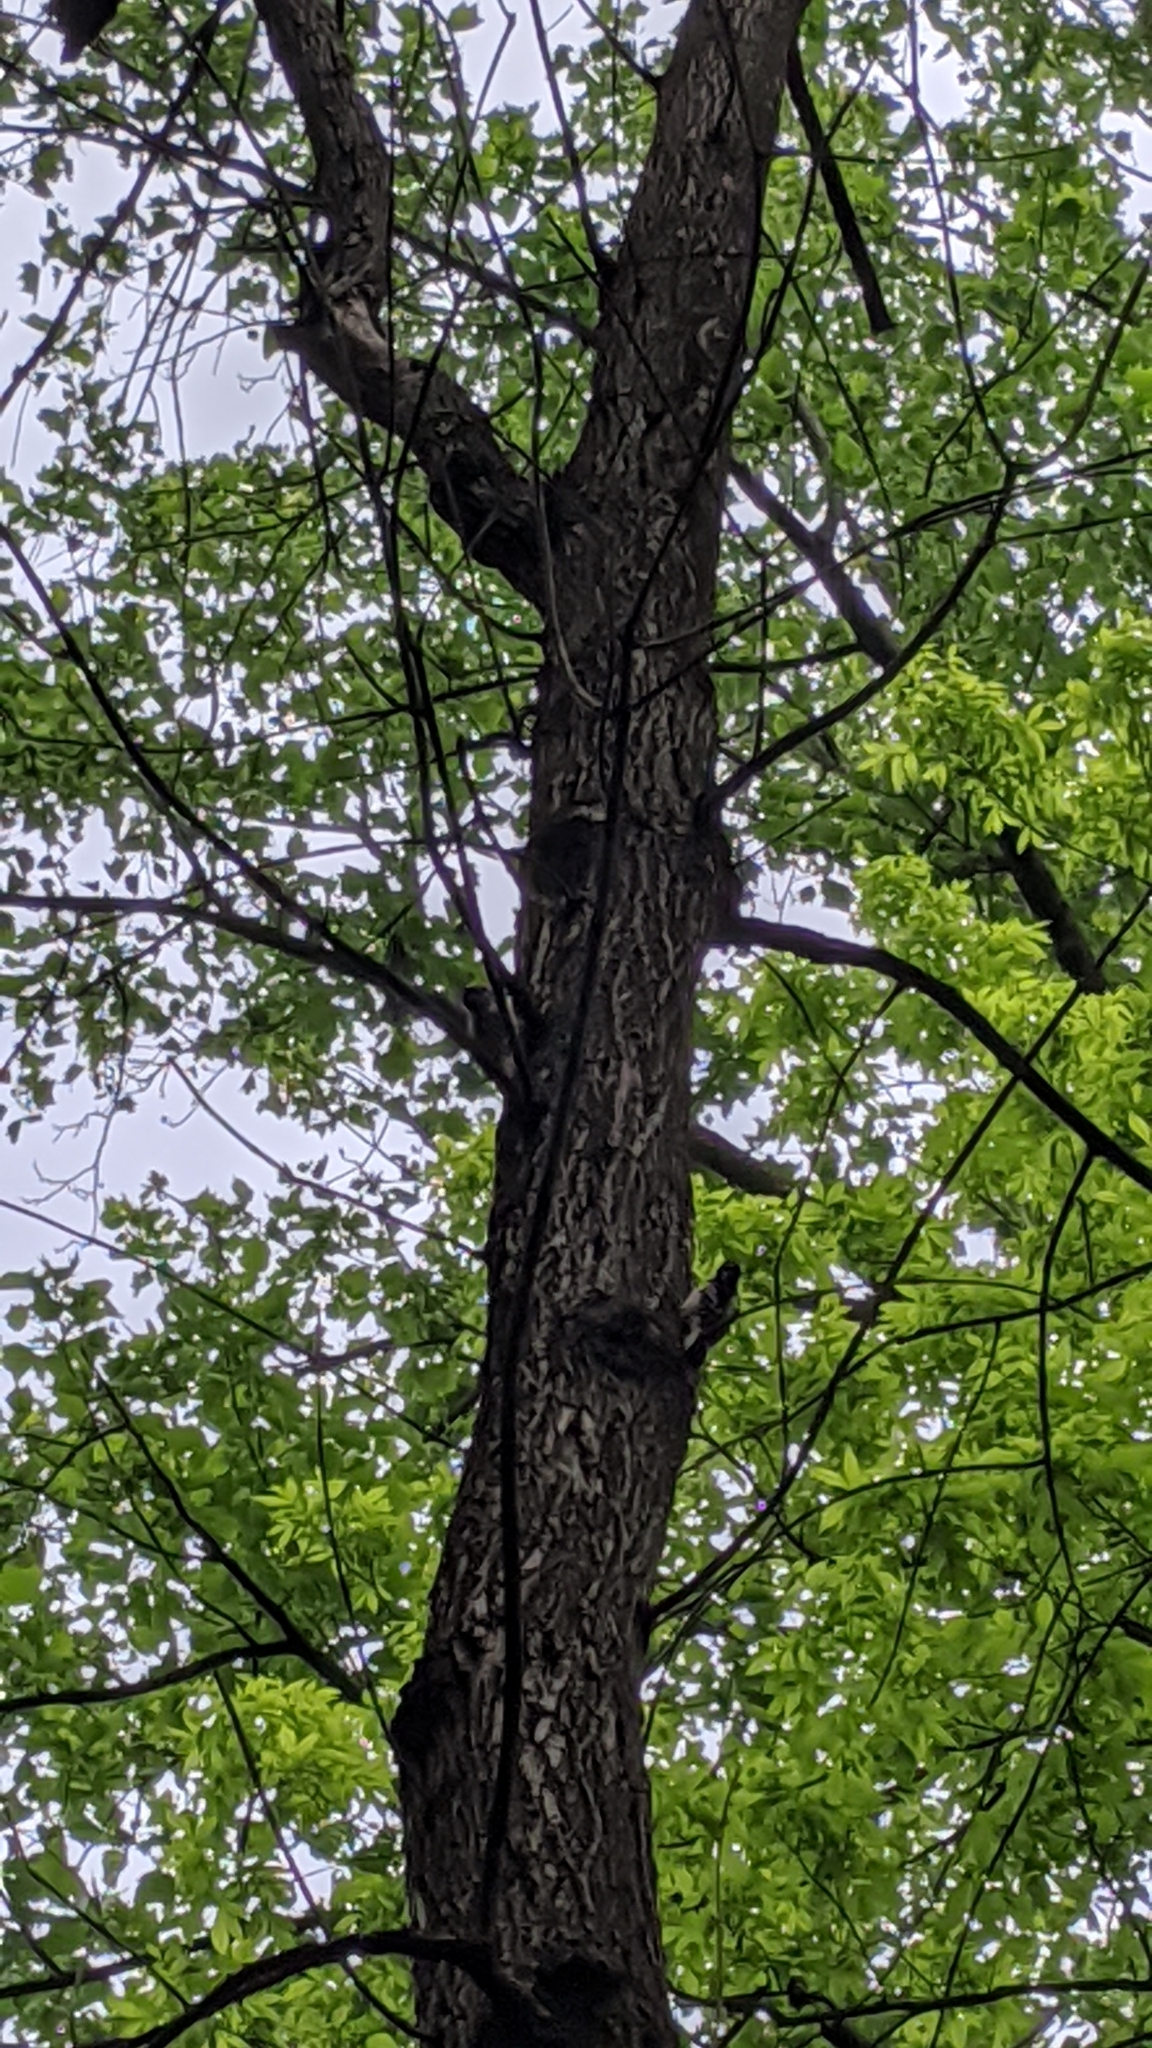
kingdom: Animalia
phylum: Chordata
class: Aves
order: Piciformes
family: Picidae
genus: Leuconotopicus
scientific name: Leuconotopicus villosus
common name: Hairy woodpecker
